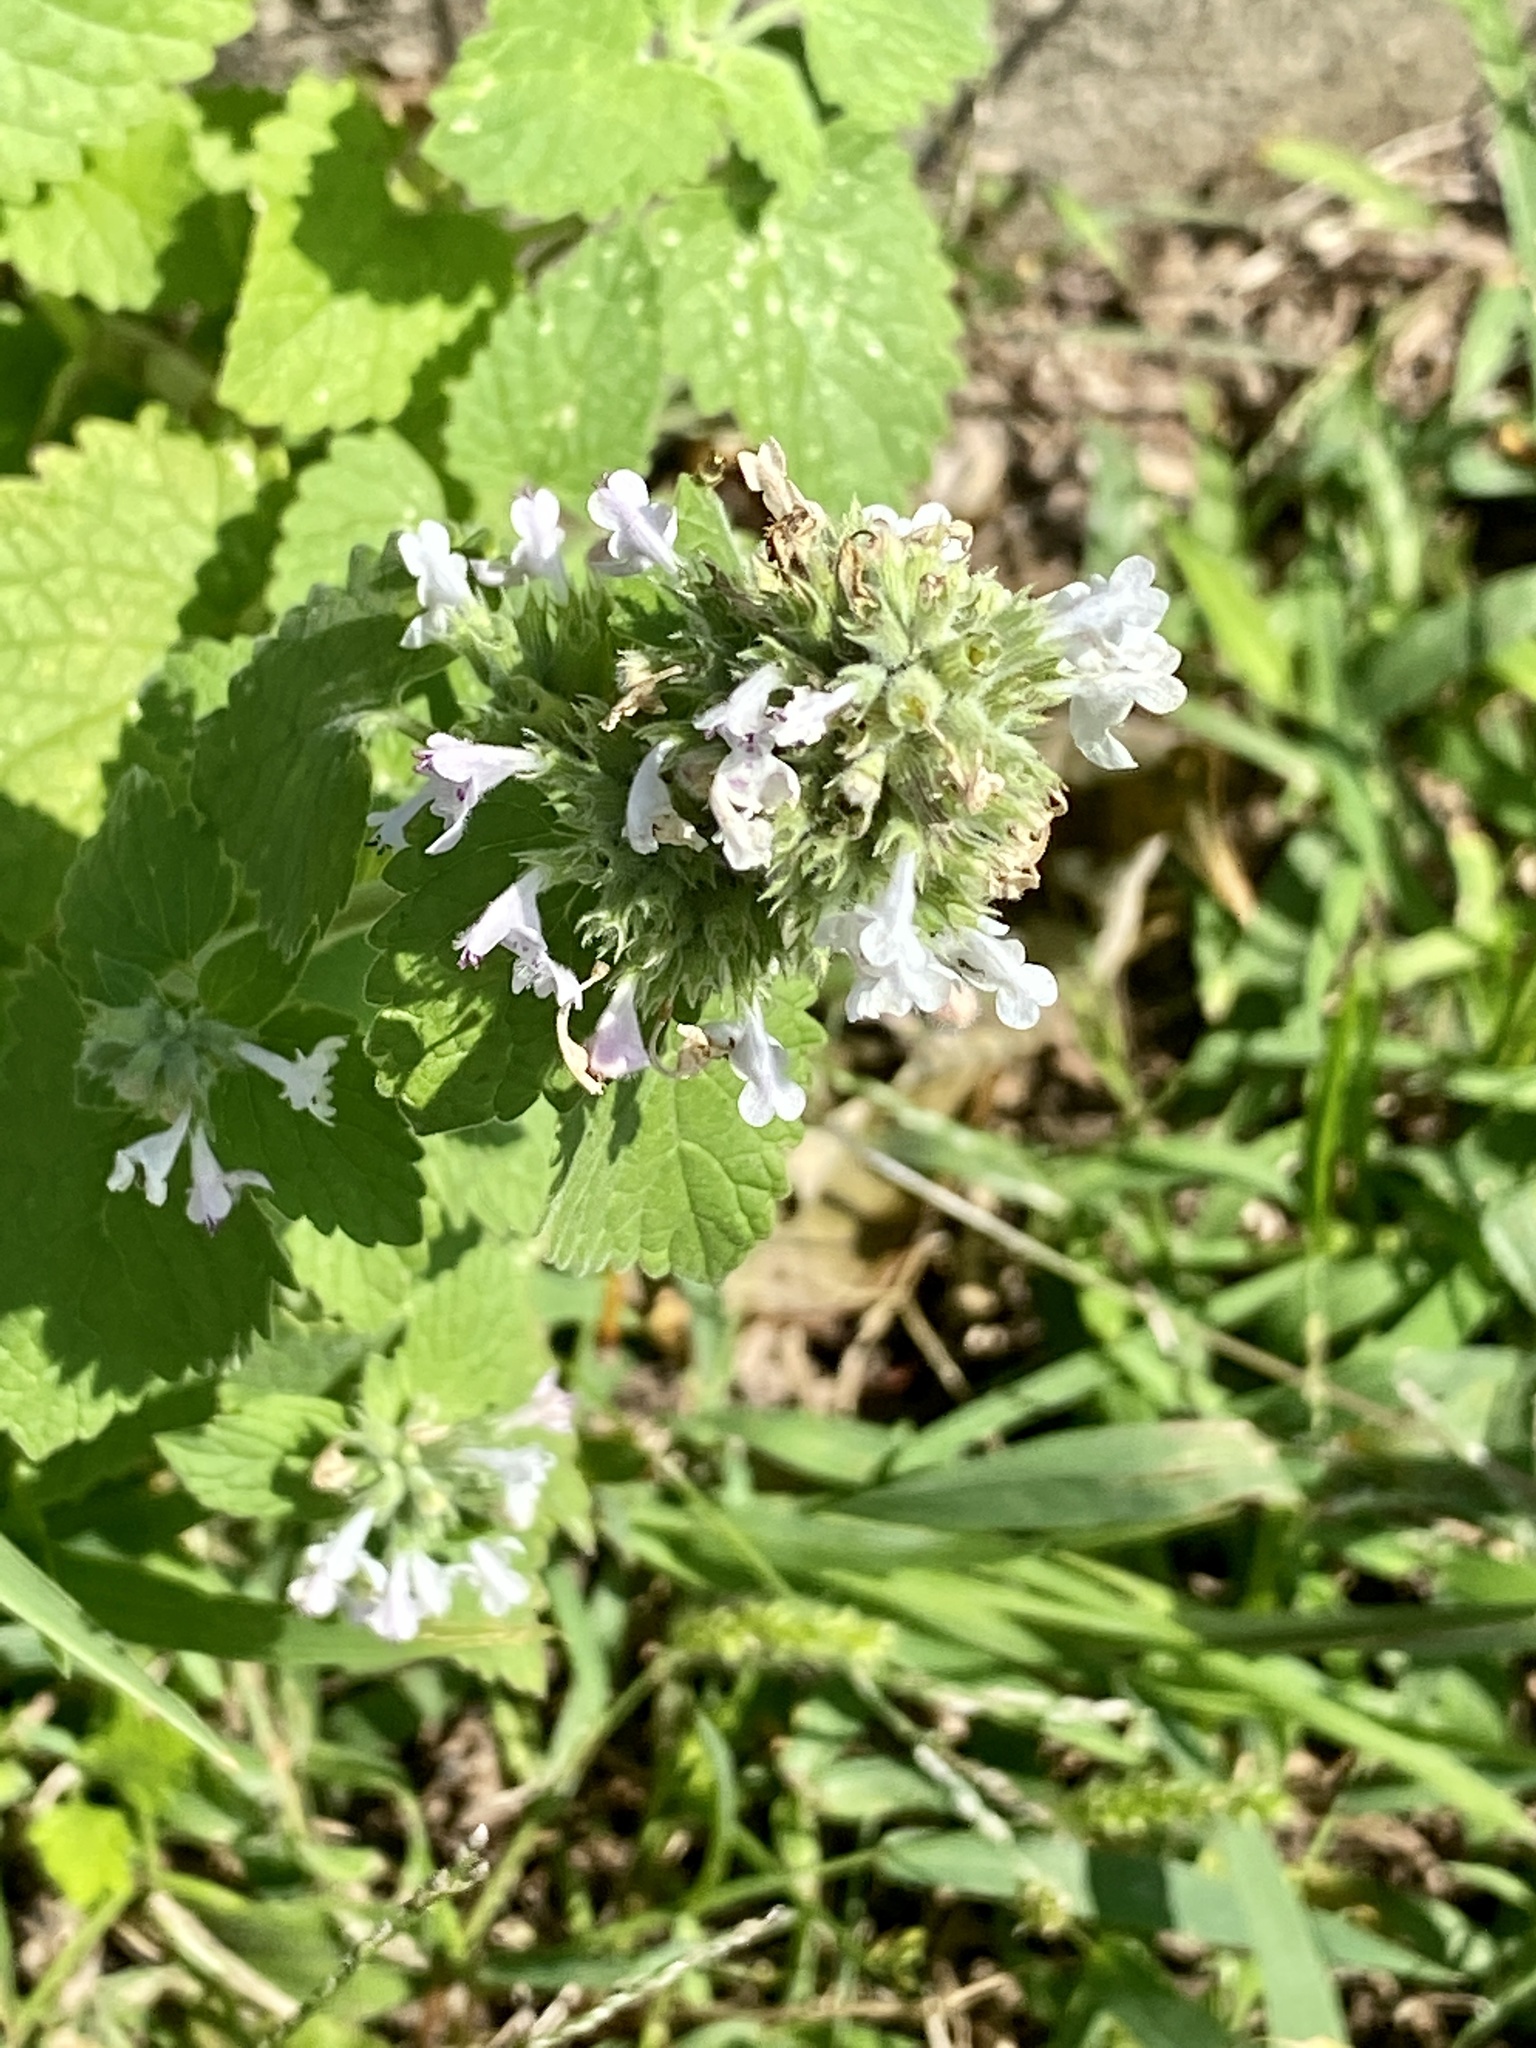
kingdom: Plantae
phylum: Tracheophyta
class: Magnoliopsida
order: Lamiales
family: Lamiaceae
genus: Nepeta
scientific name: Nepeta cataria
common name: Catnip
